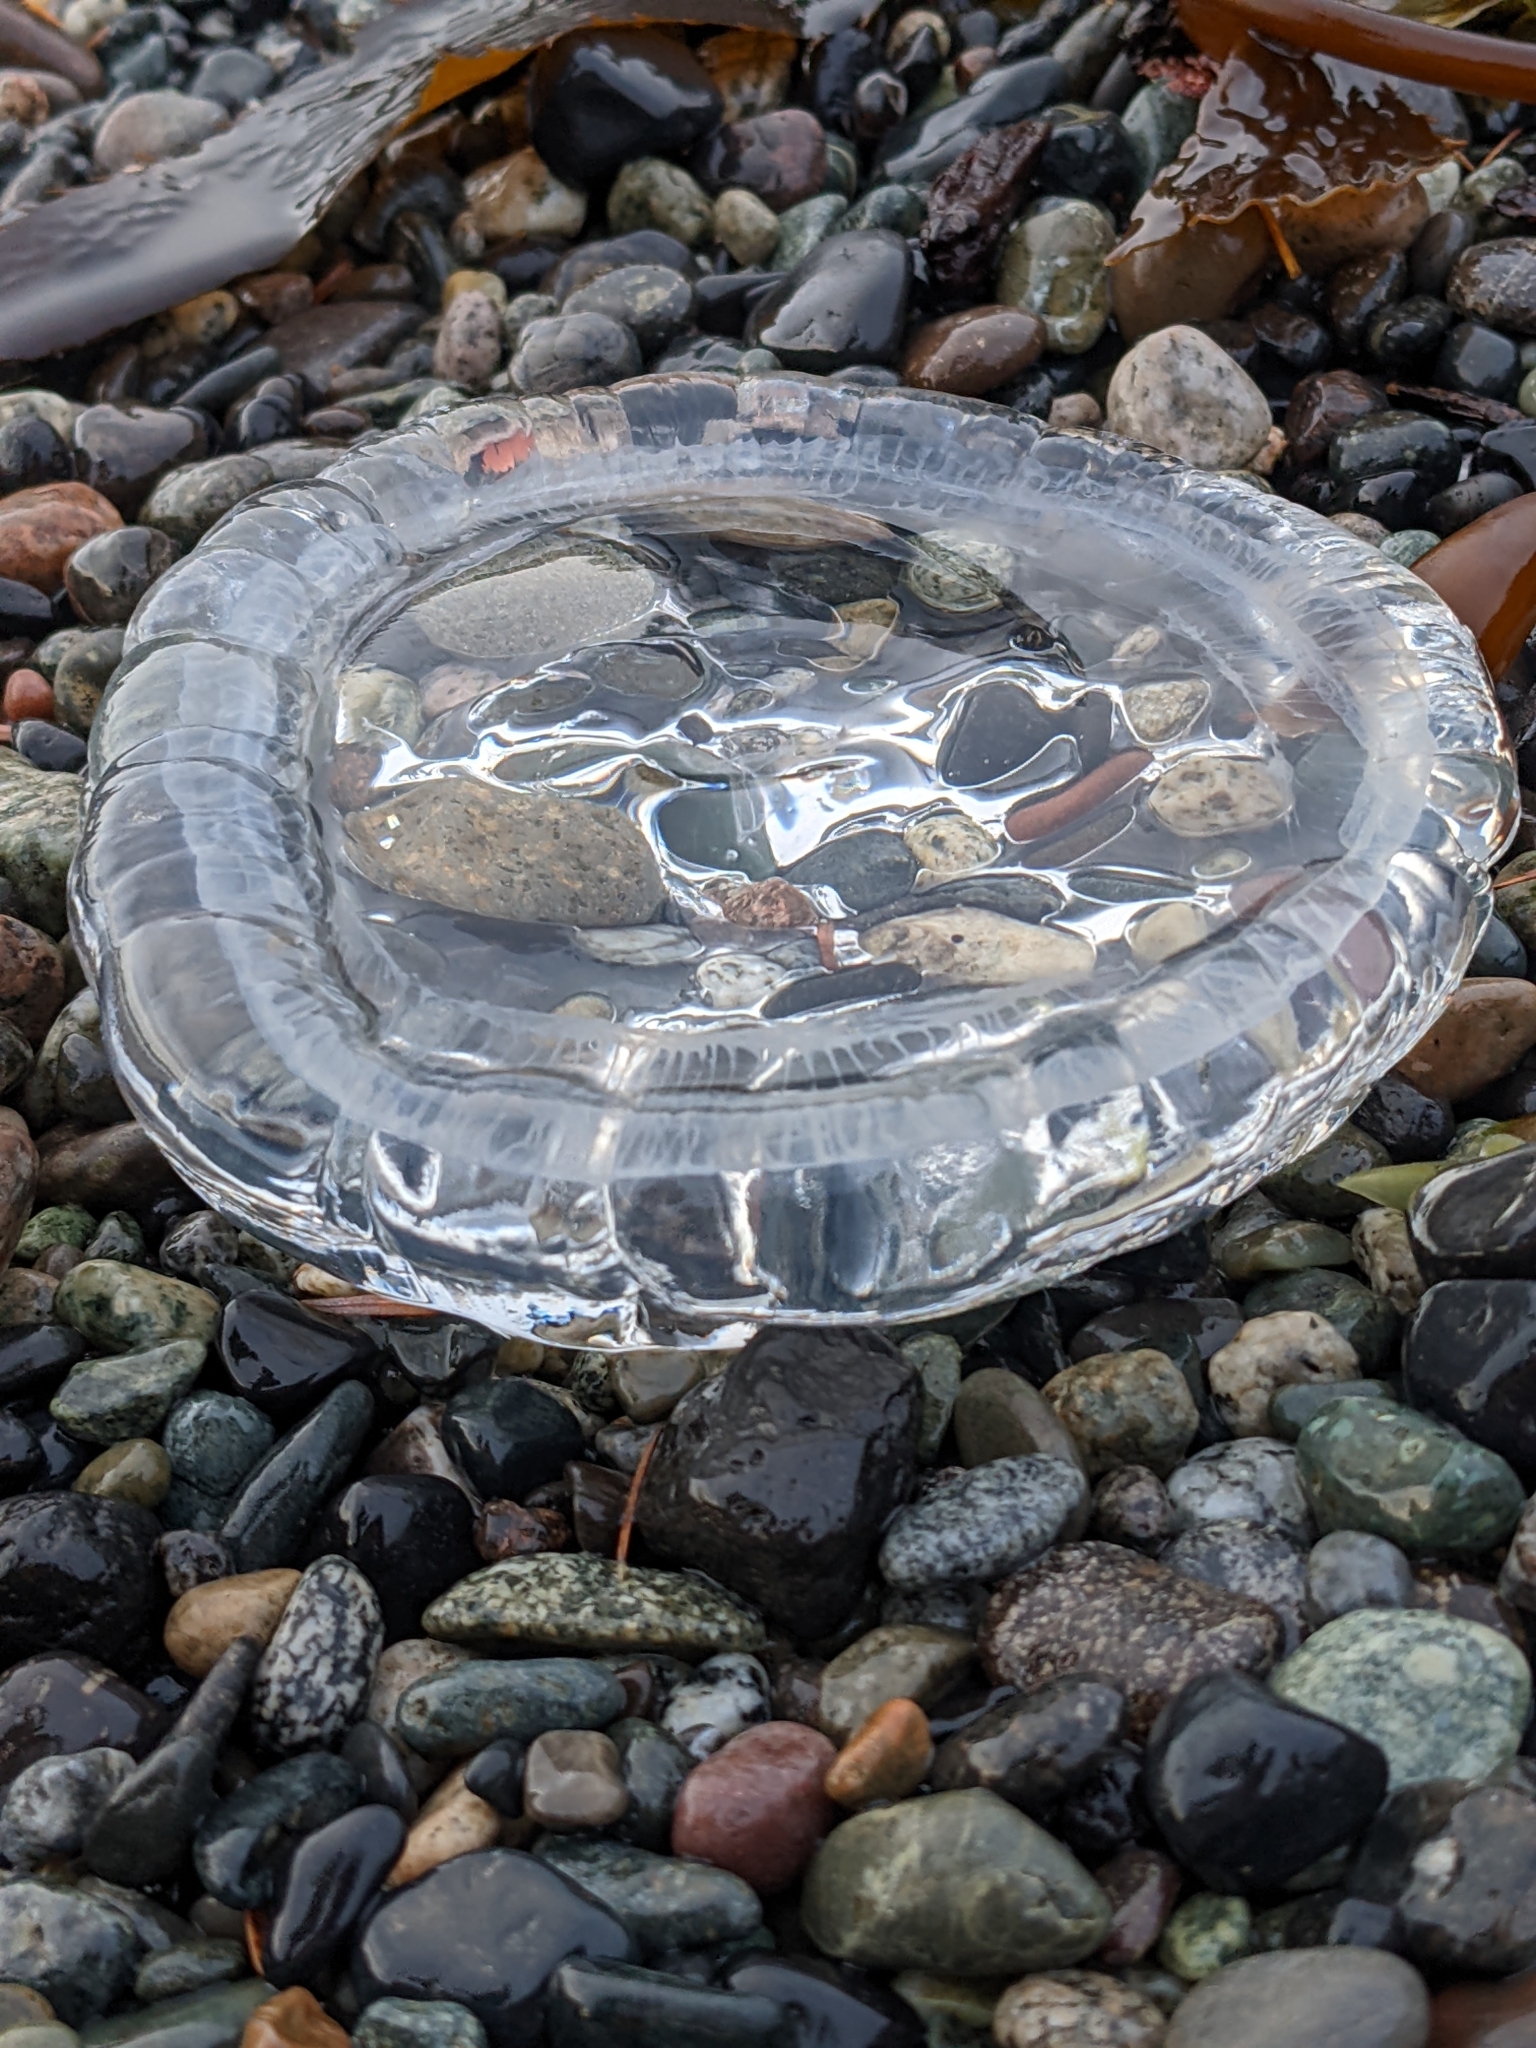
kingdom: Animalia
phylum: Cnidaria
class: Hydrozoa
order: Leptothecata
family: Aequoreidae
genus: Aequorea
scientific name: Aequorea victoria
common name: Water jellyfish
